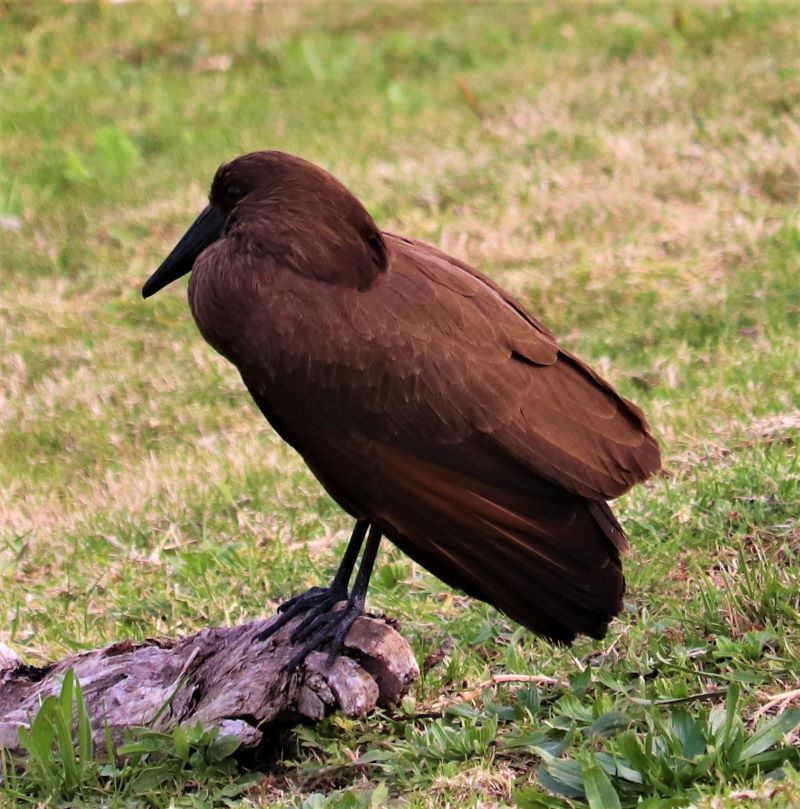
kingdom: Animalia
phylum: Chordata
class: Aves
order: Pelecaniformes
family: Scopidae
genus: Scopus
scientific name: Scopus umbretta
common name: Hamerkop
